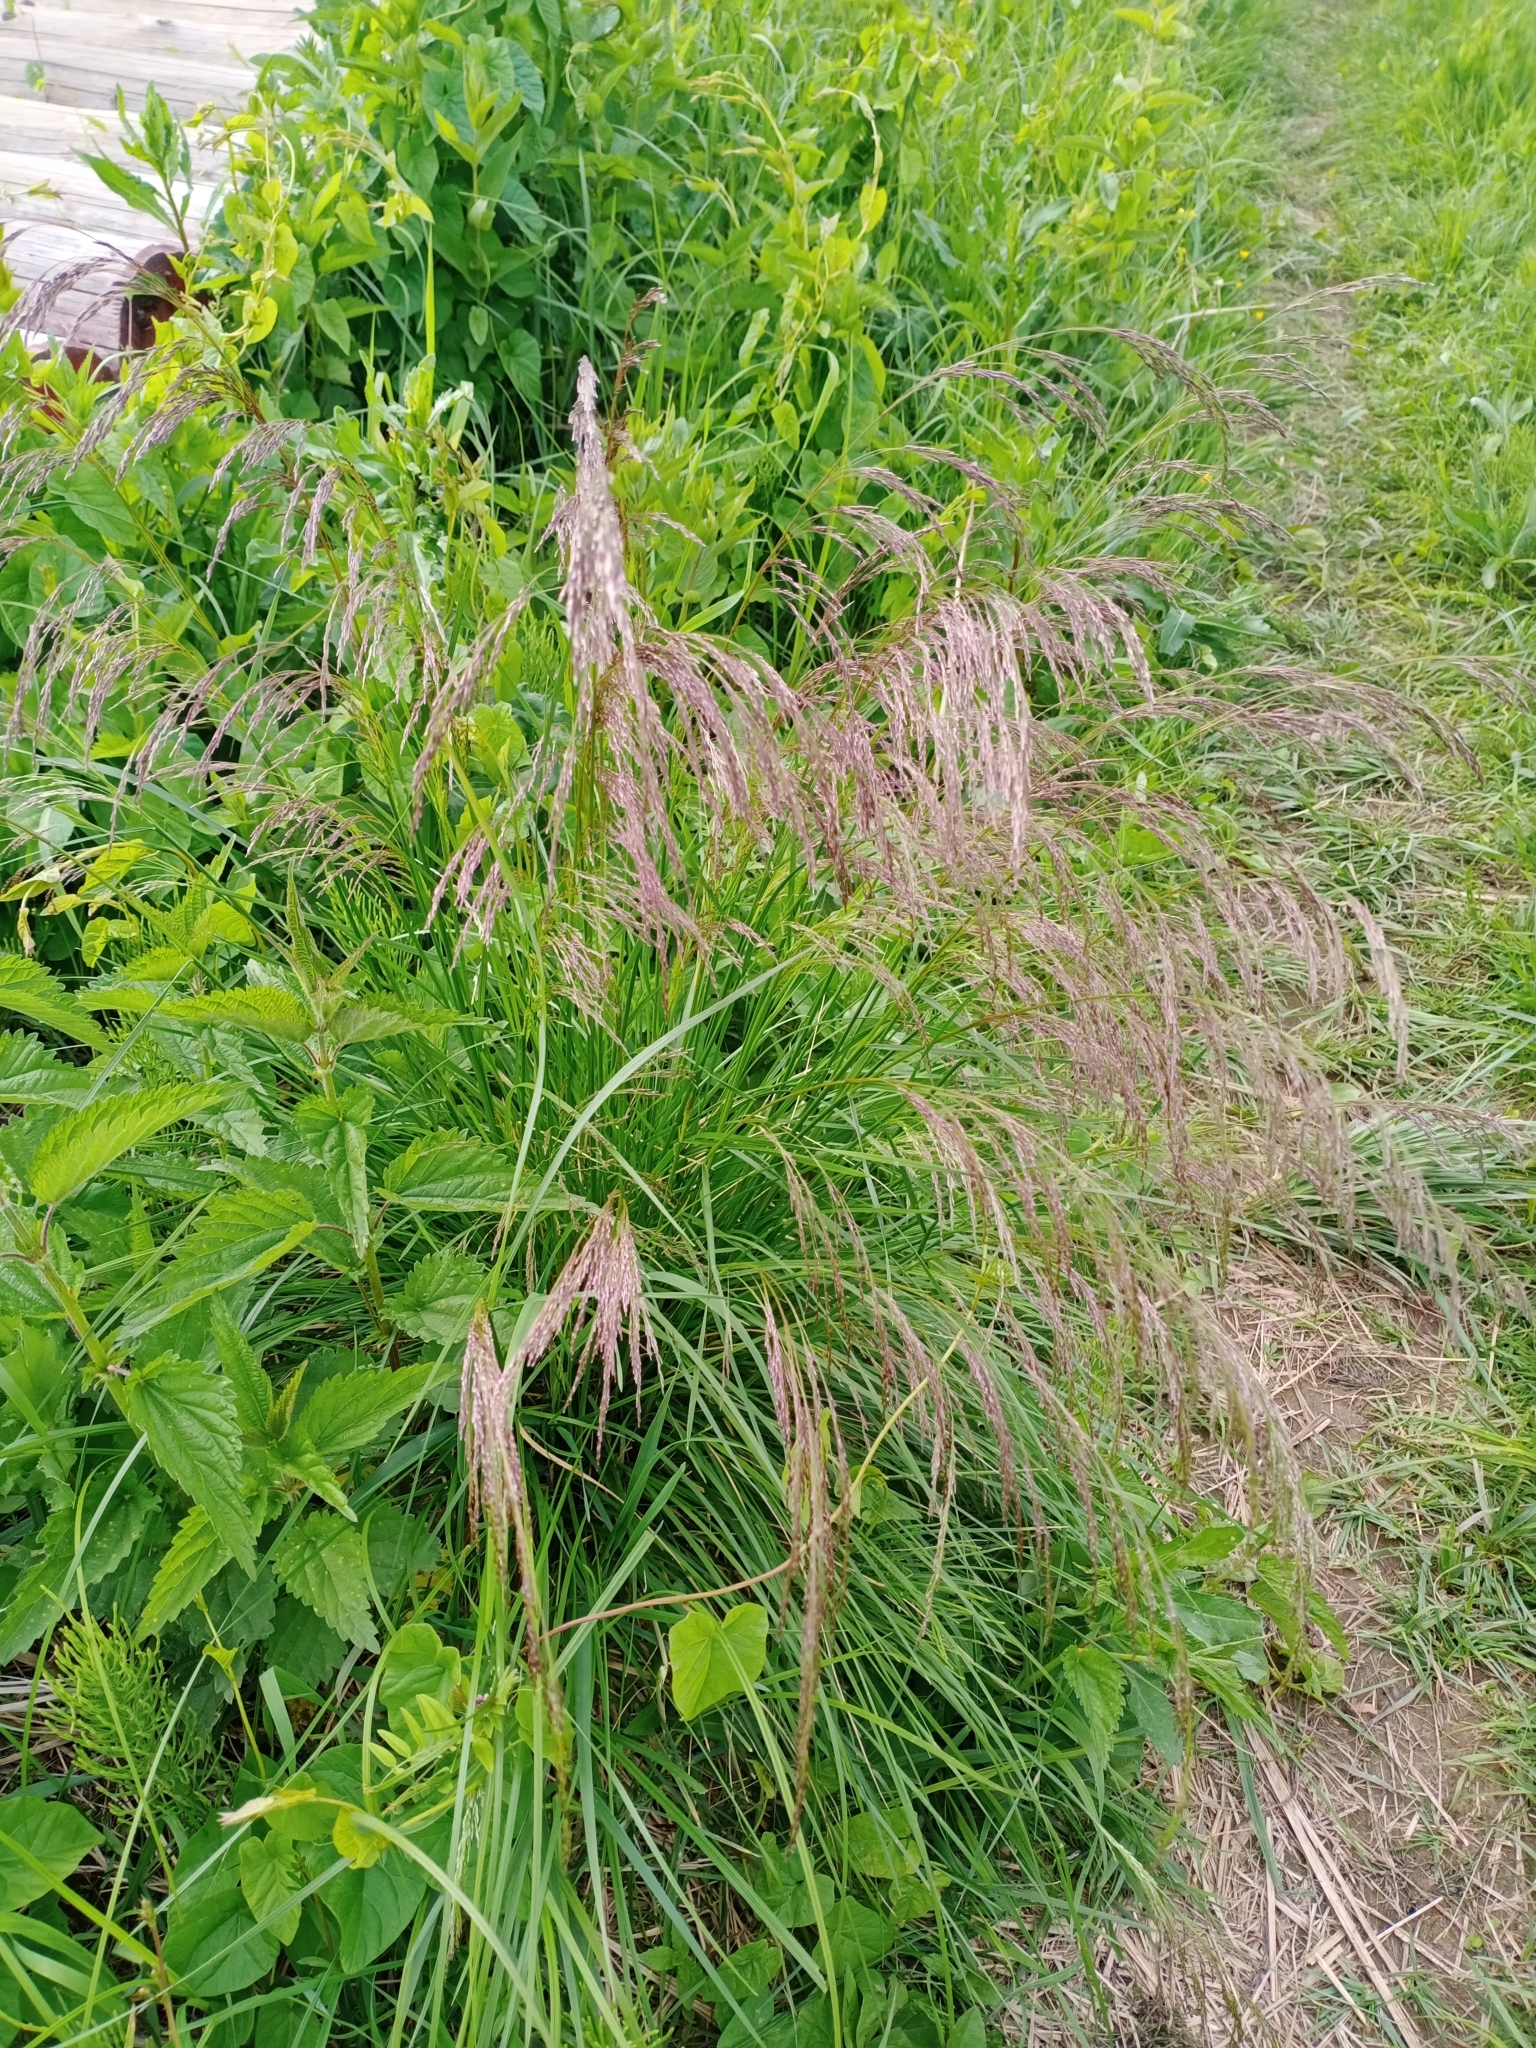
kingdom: Plantae
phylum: Tracheophyta
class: Liliopsida
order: Poales
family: Poaceae
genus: Deschampsia
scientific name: Deschampsia cespitosa
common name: Tufted hair-grass
